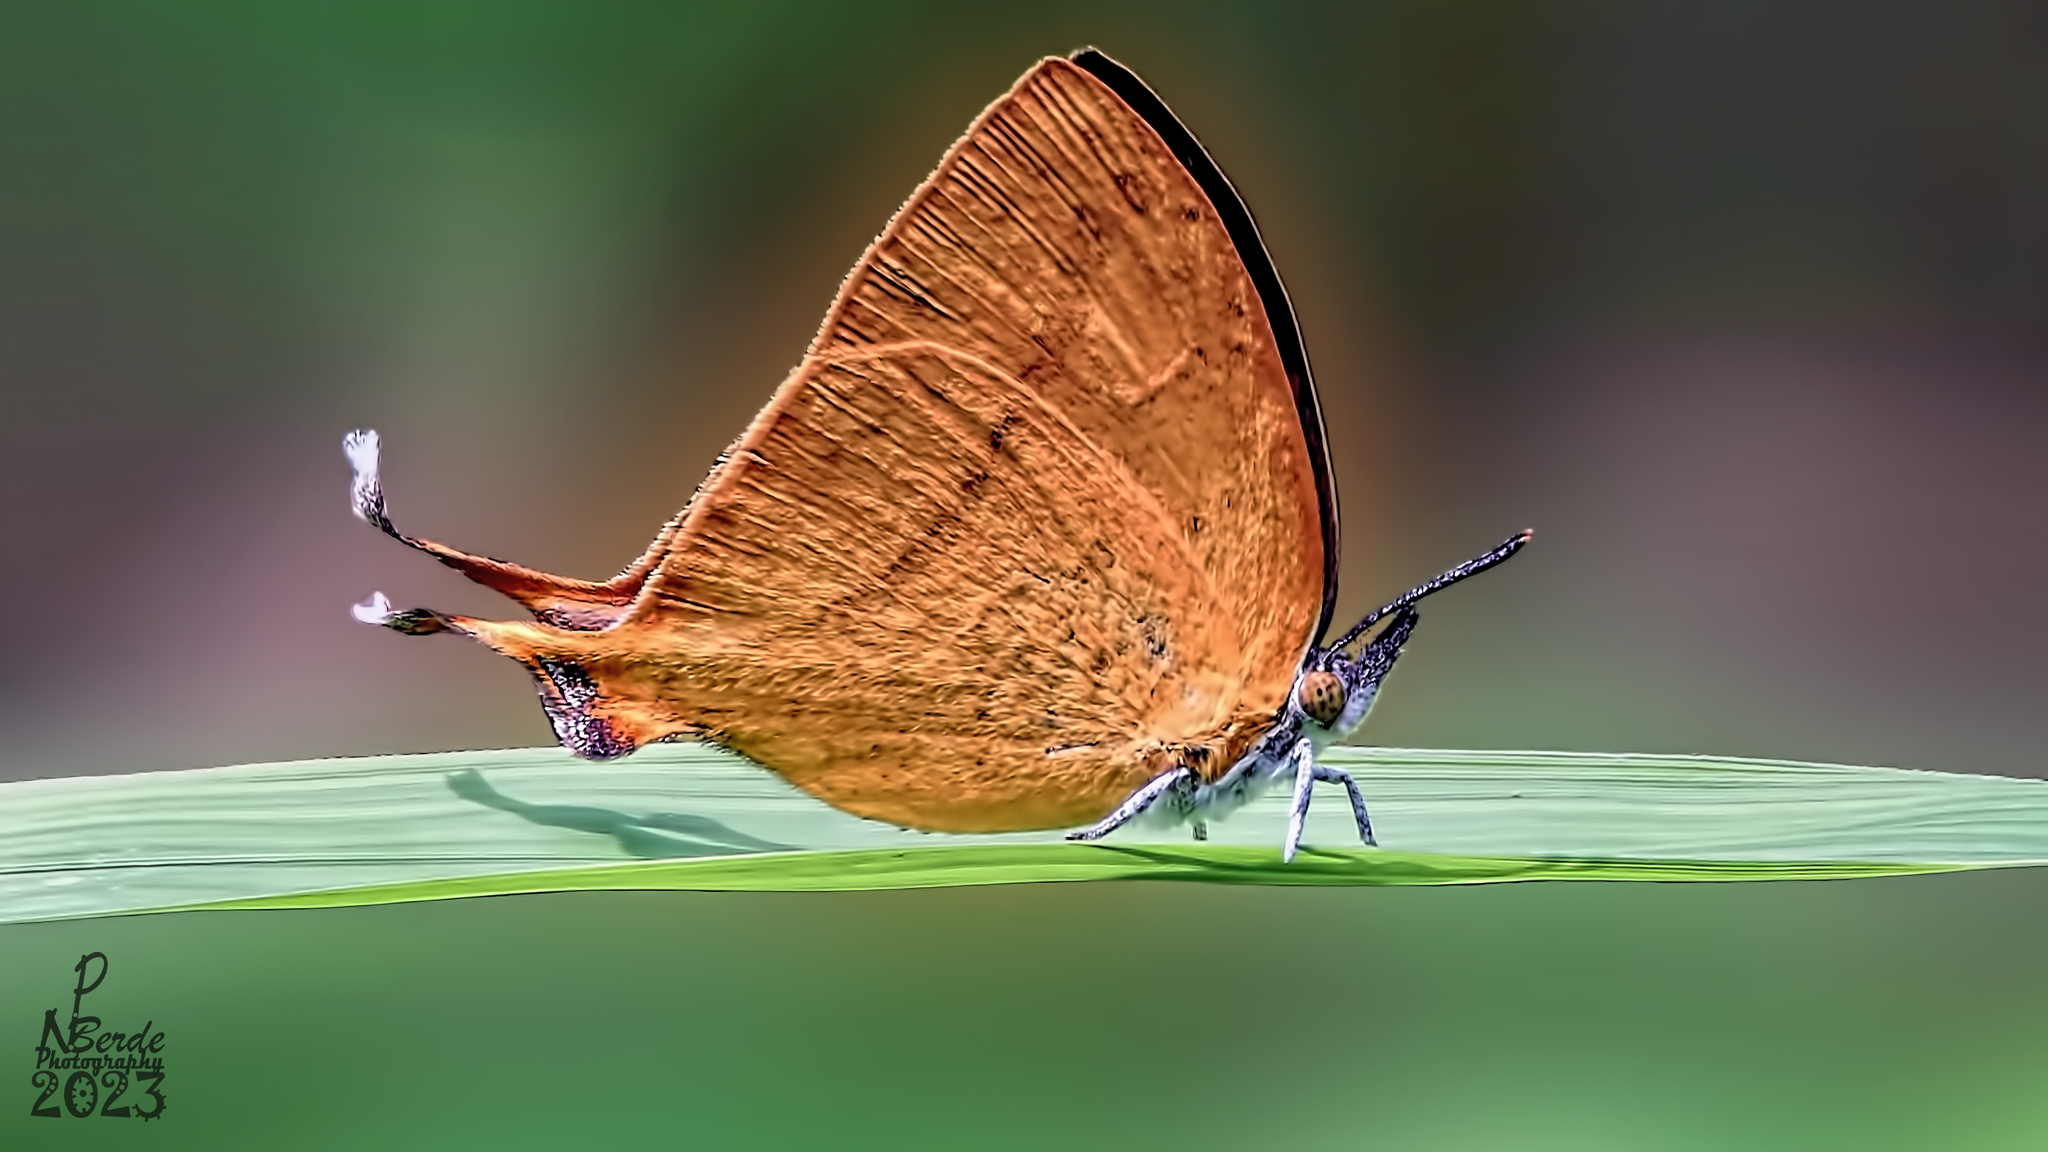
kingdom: Animalia
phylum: Arthropoda
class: Insecta
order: Lepidoptera
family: Lycaenidae
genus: Loxura
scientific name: Loxura atymnus
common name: Common yamfly
